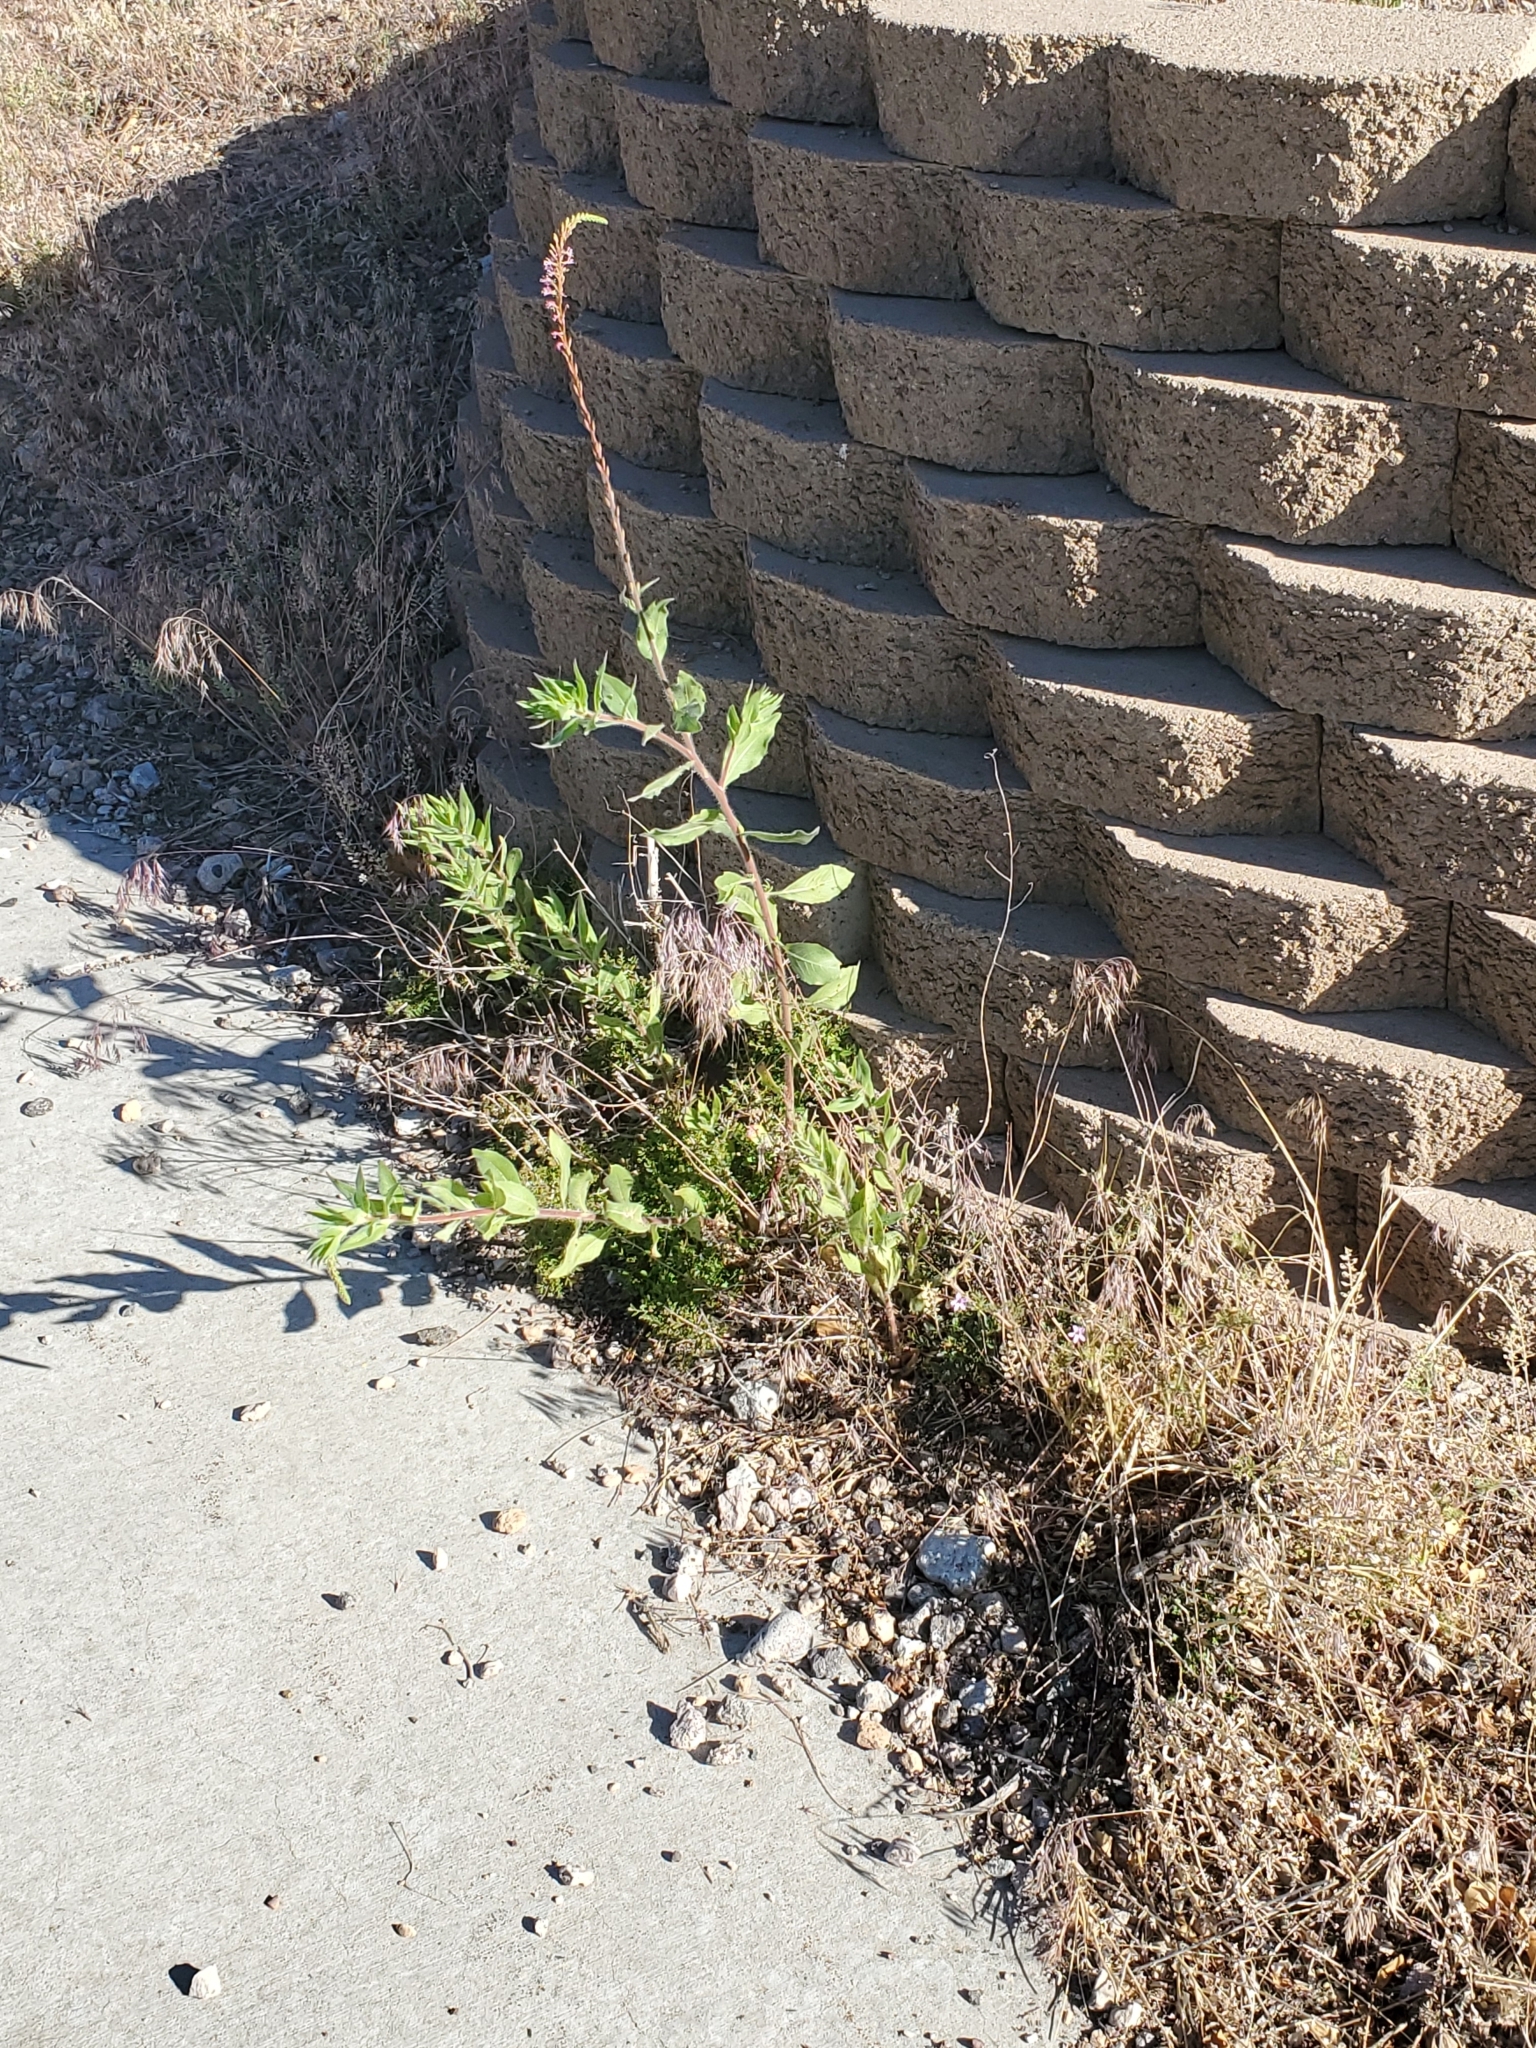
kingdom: Plantae
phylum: Tracheophyta
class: Magnoliopsida
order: Myrtales
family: Onagraceae
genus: Oenothera
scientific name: Oenothera curtiflora
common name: Velvetweed
